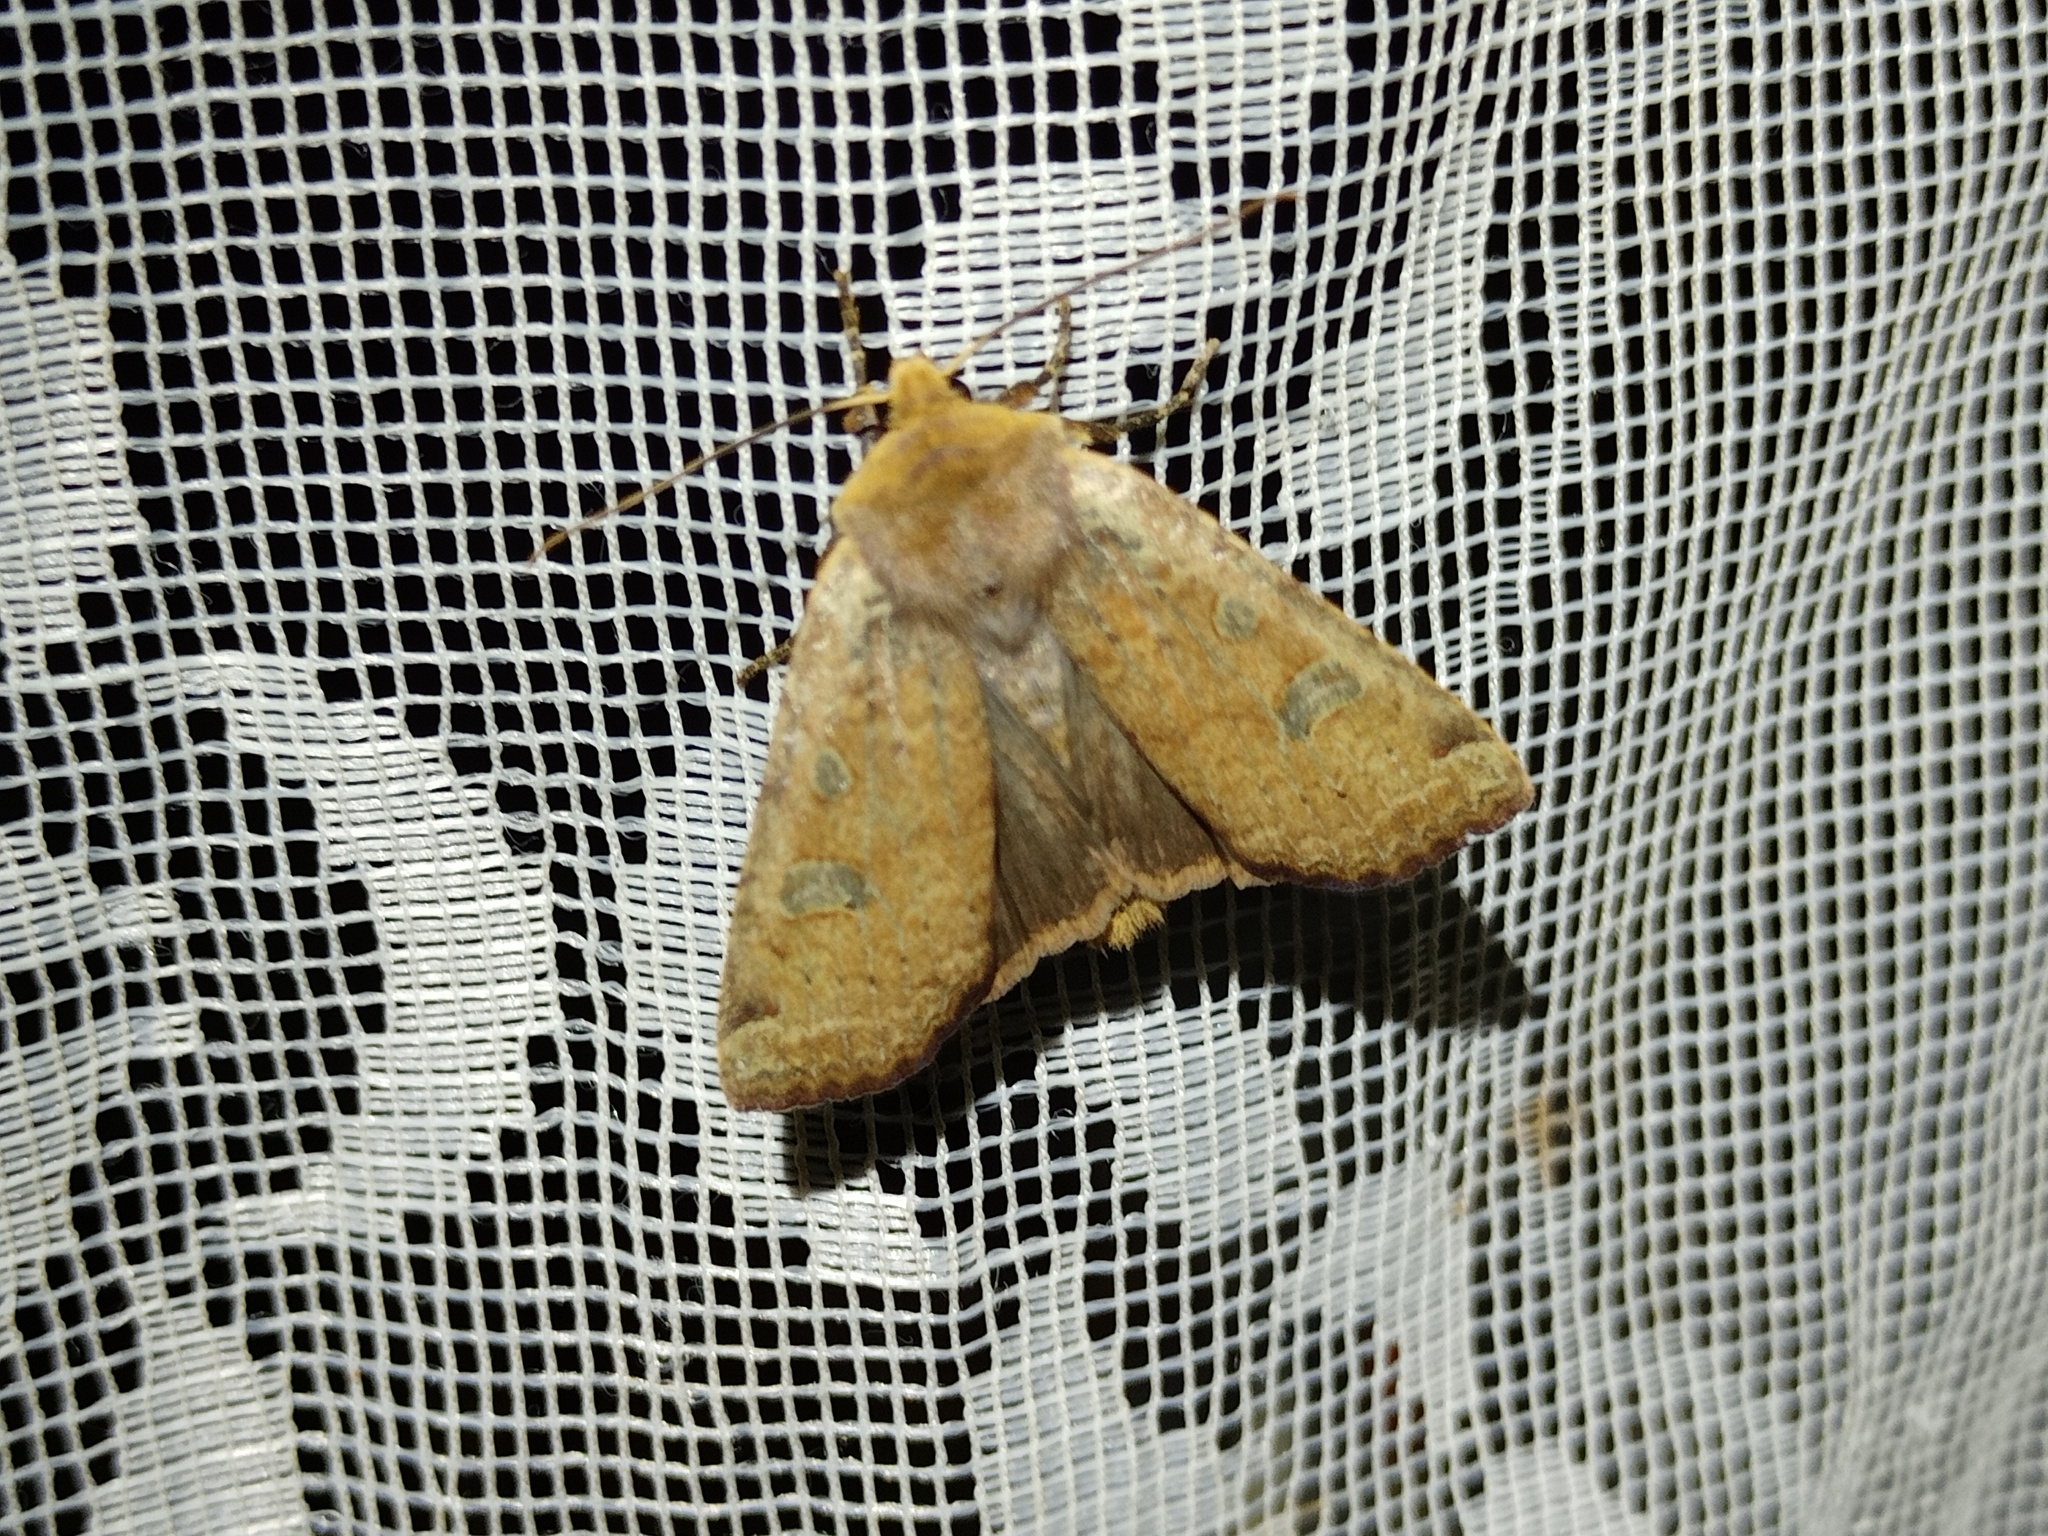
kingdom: Animalia
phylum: Arthropoda
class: Insecta
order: Lepidoptera
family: Noctuidae
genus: Conistra
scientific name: Conistra erythrocephala
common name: Red-headed chestnut
